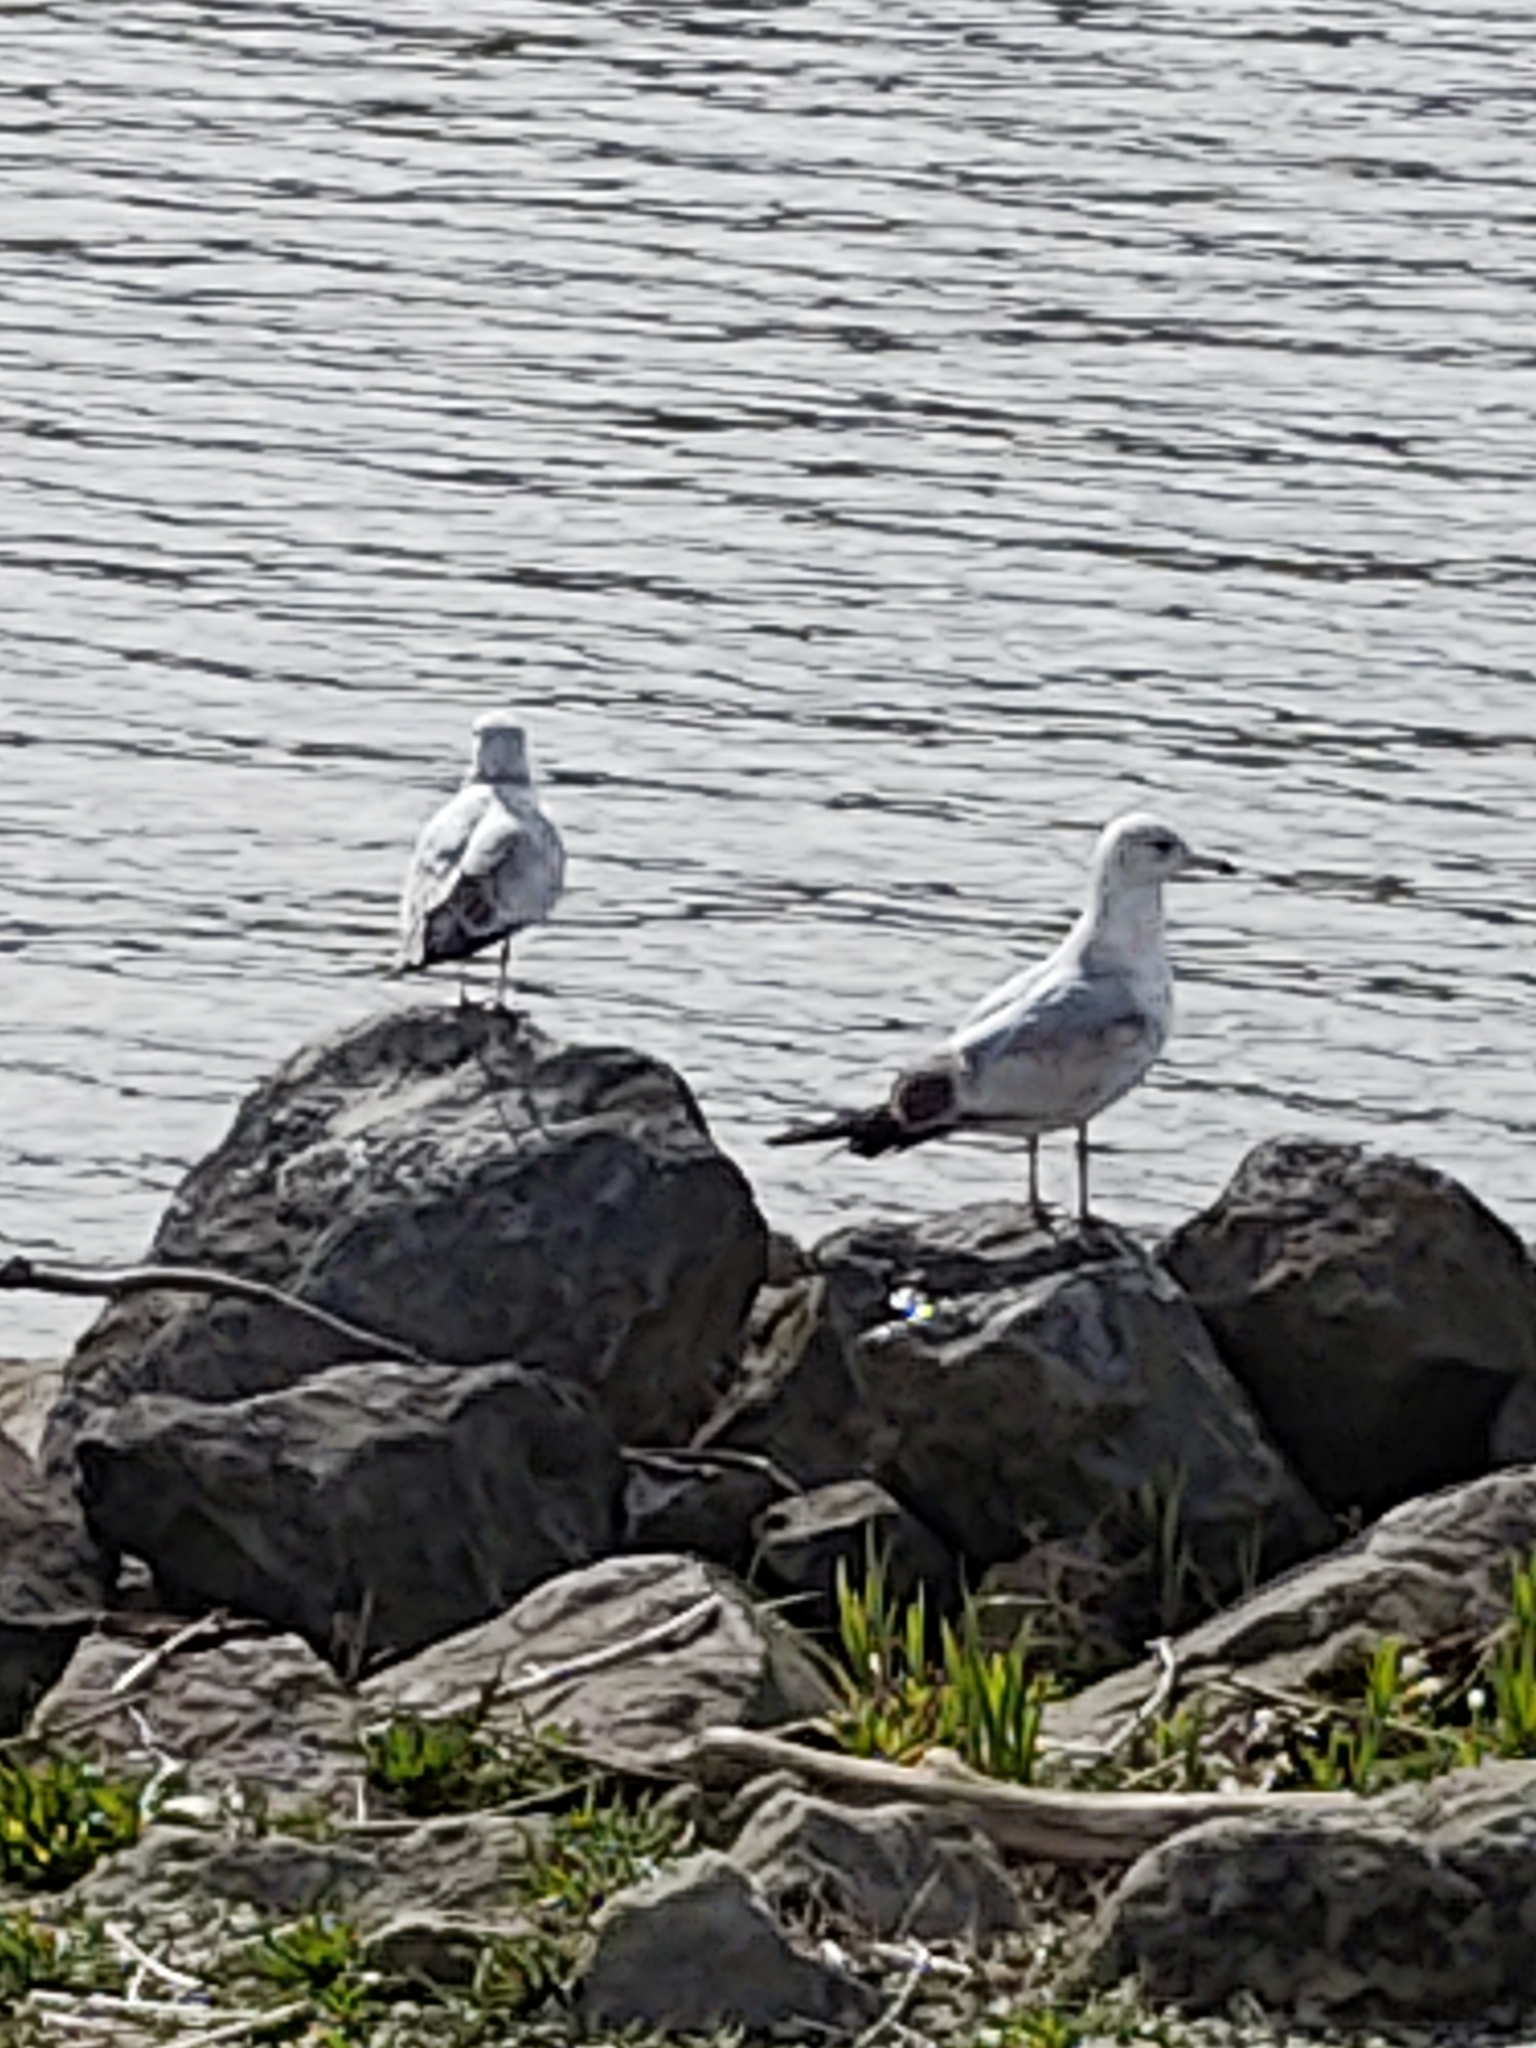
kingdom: Animalia
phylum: Chordata
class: Aves
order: Charadriiformes
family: Laridae
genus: Larus
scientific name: Larus delawarensis
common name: Ring-billed gull
